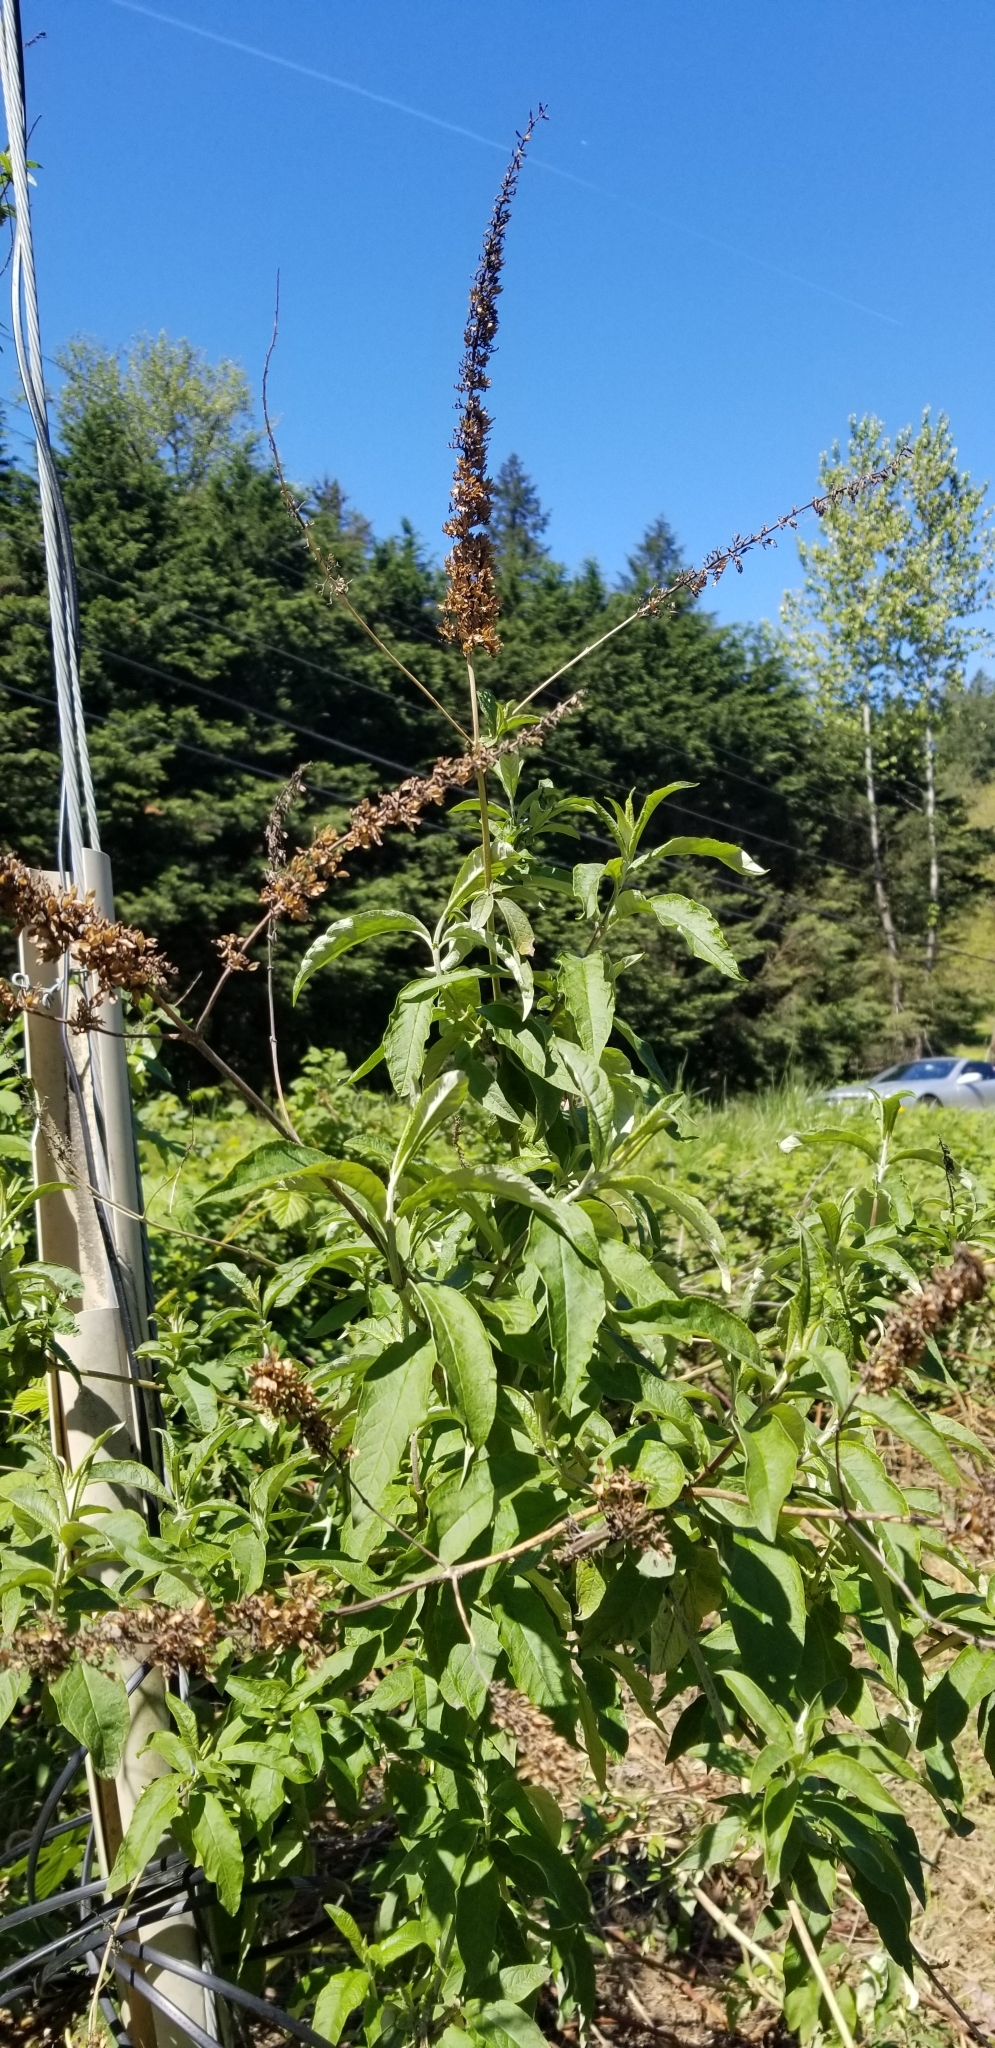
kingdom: Plantae
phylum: Tracheophyta
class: Magnoliopsida
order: Lamiales
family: Scrophulariaceae
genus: Buddleja
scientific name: Buddleja davidii
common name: Butterfly-bush
